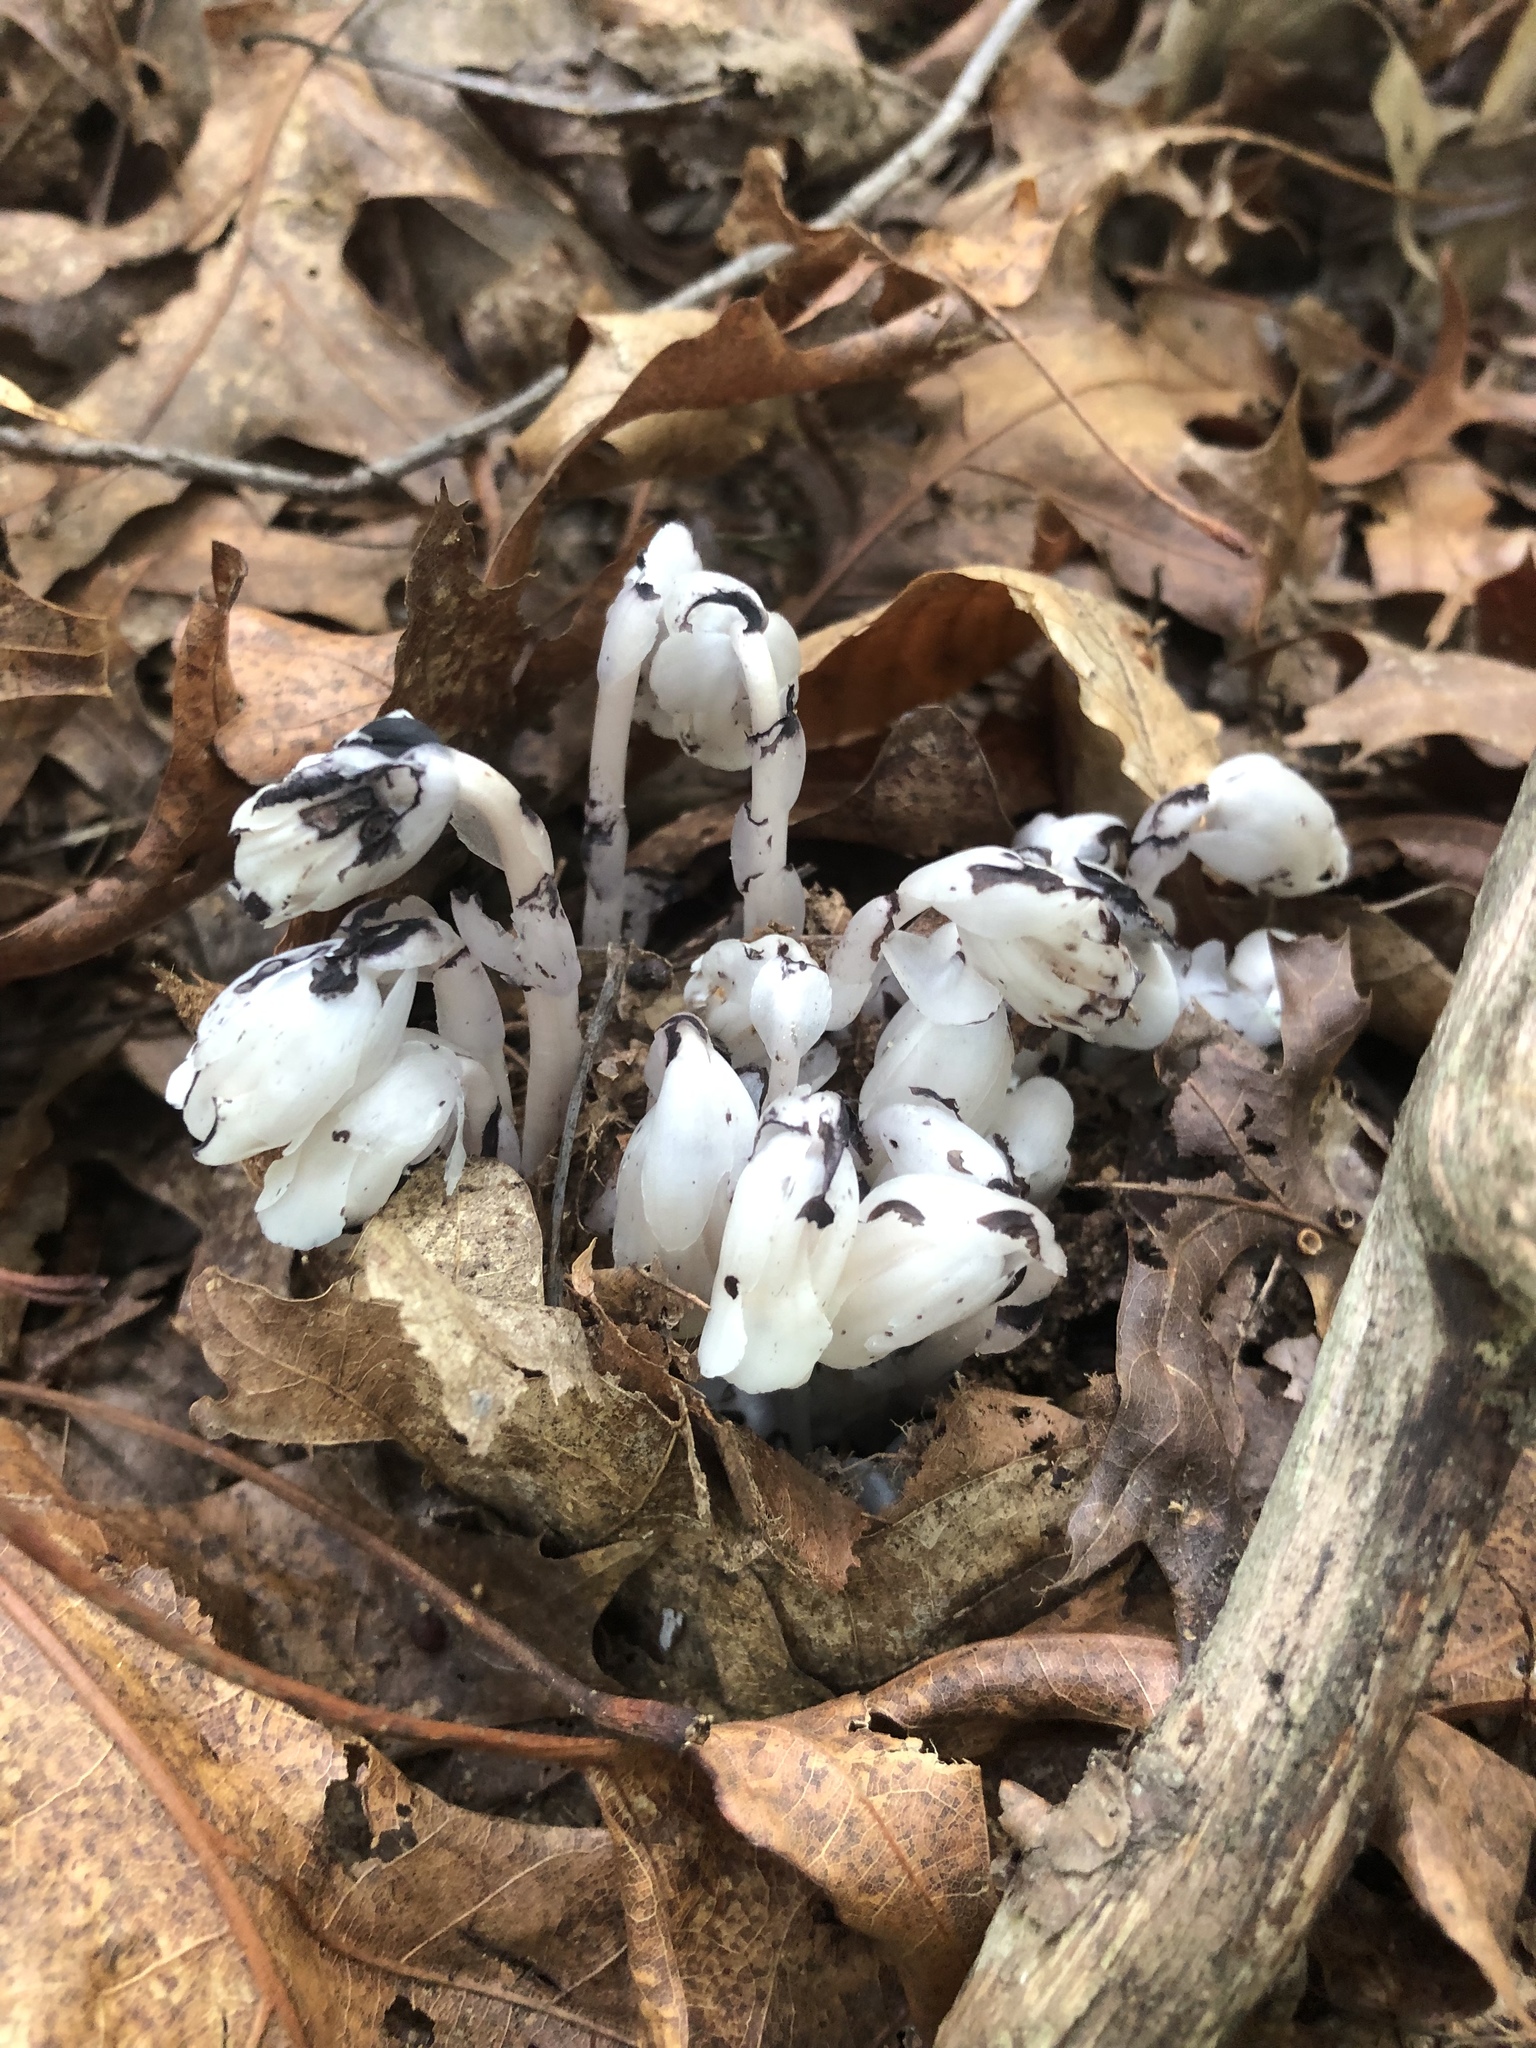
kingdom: Plantae
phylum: Tracheophyta
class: Magnoliopsida
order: Ericales
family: Ericaceae
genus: Monotropa
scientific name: Monotropa uniflora
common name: Convulsion root
